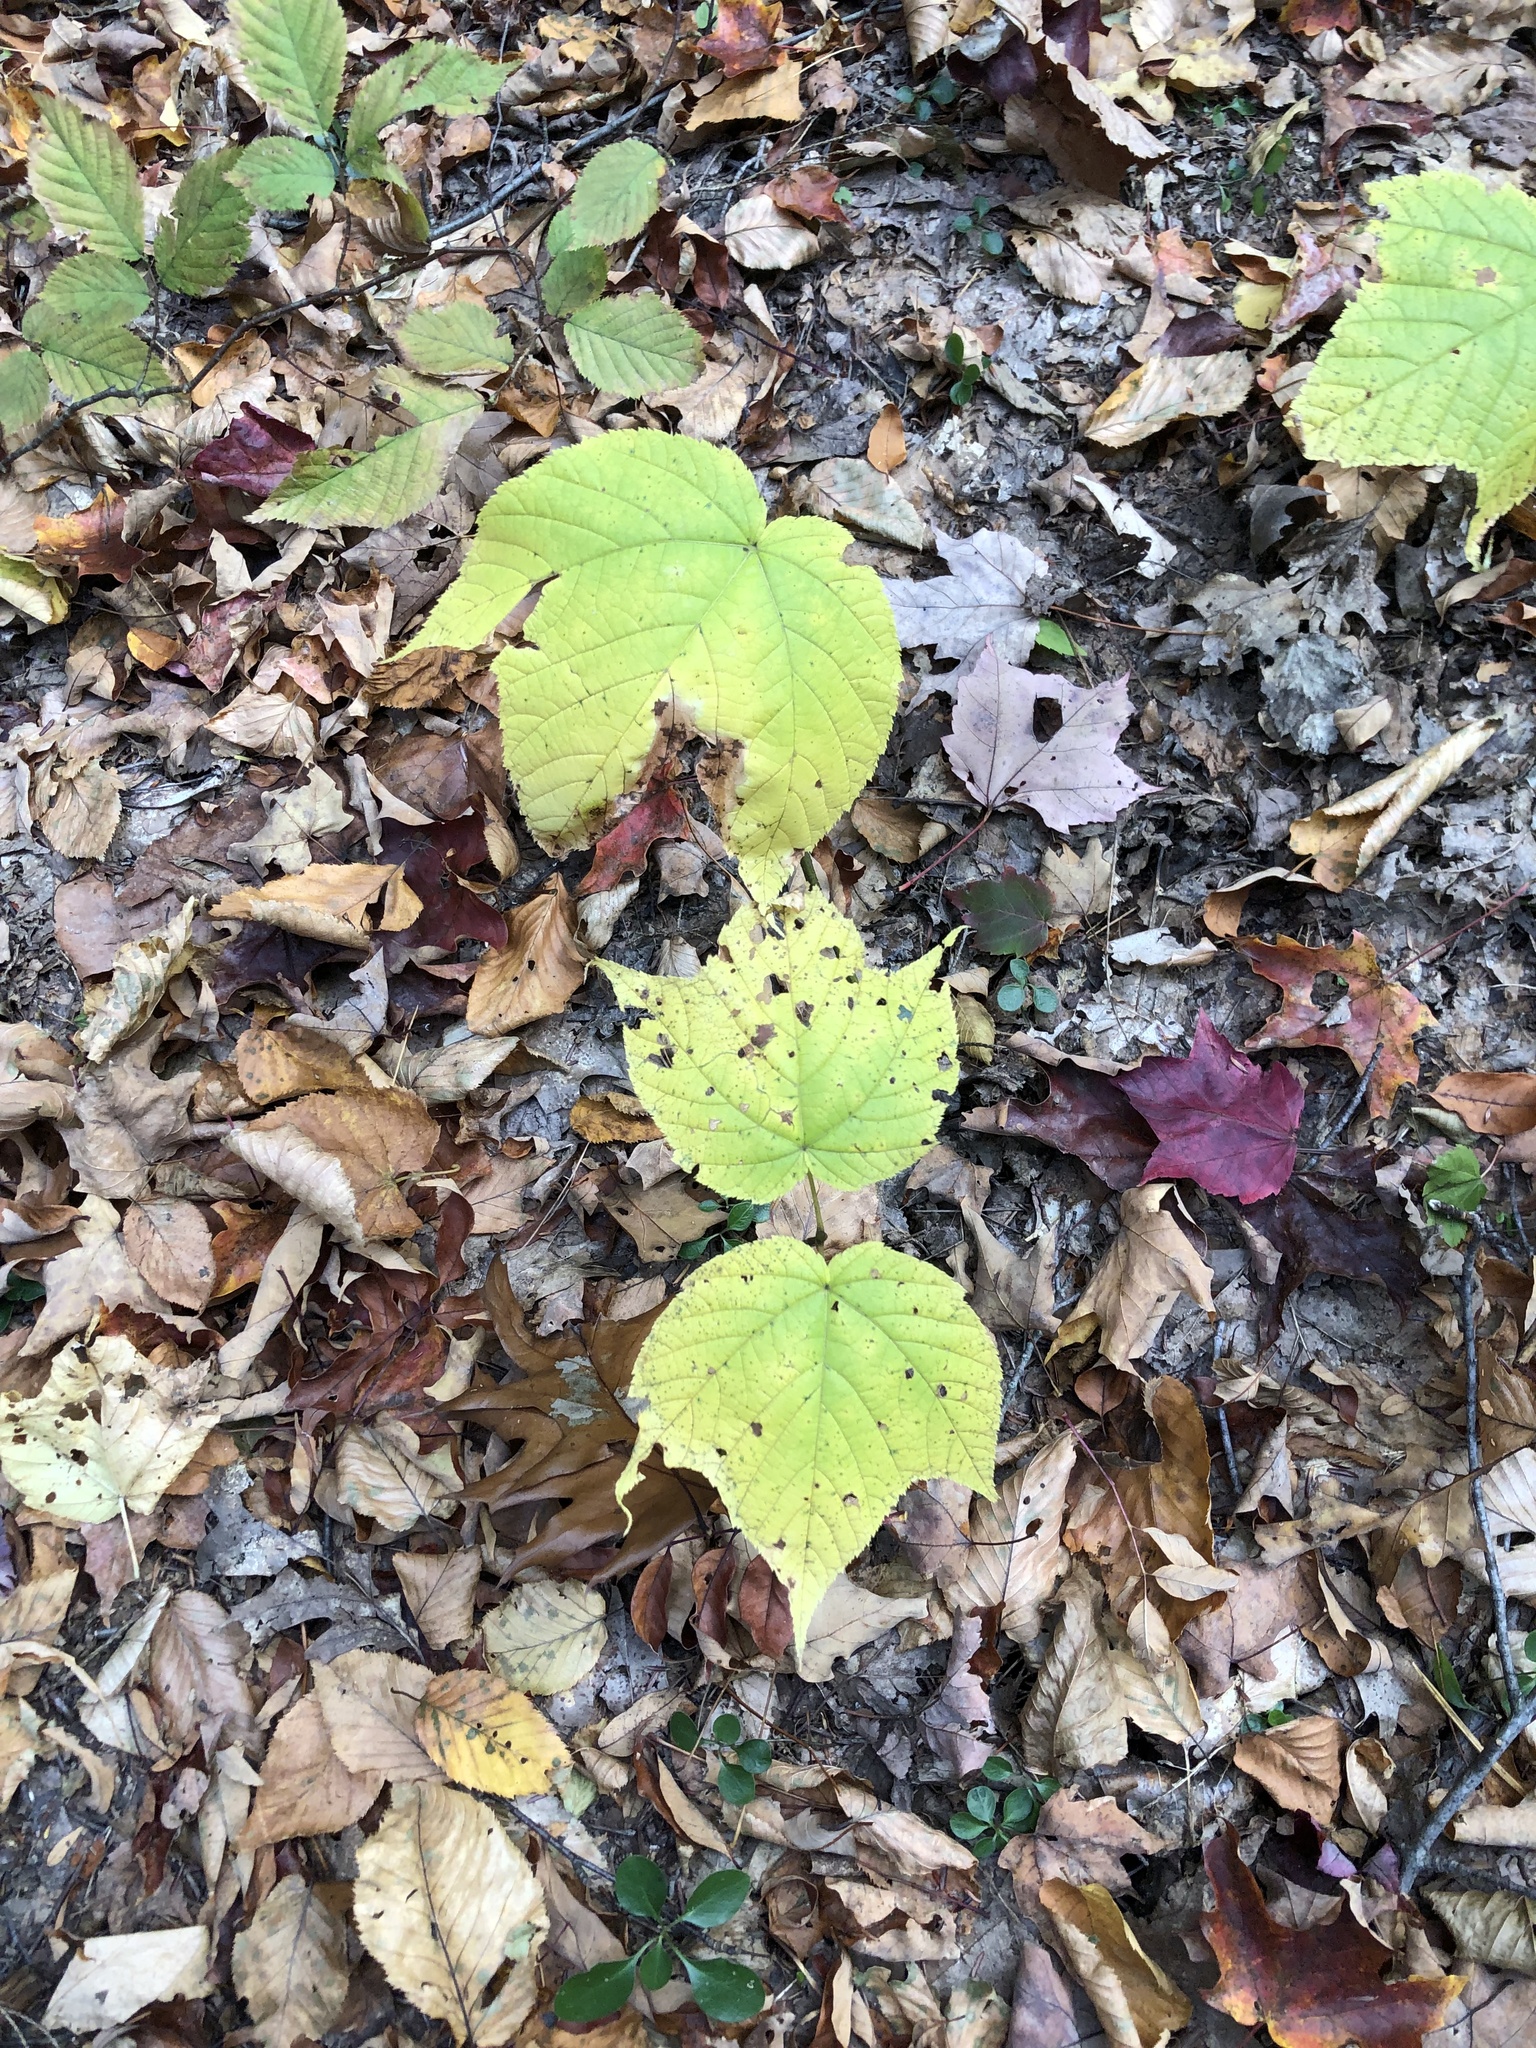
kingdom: Plantae
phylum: Tracheophyta
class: Magnoliopsida
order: Sapindales
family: Sapindaceae
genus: Acer
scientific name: Acer pensylvanicum
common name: Moosewood
